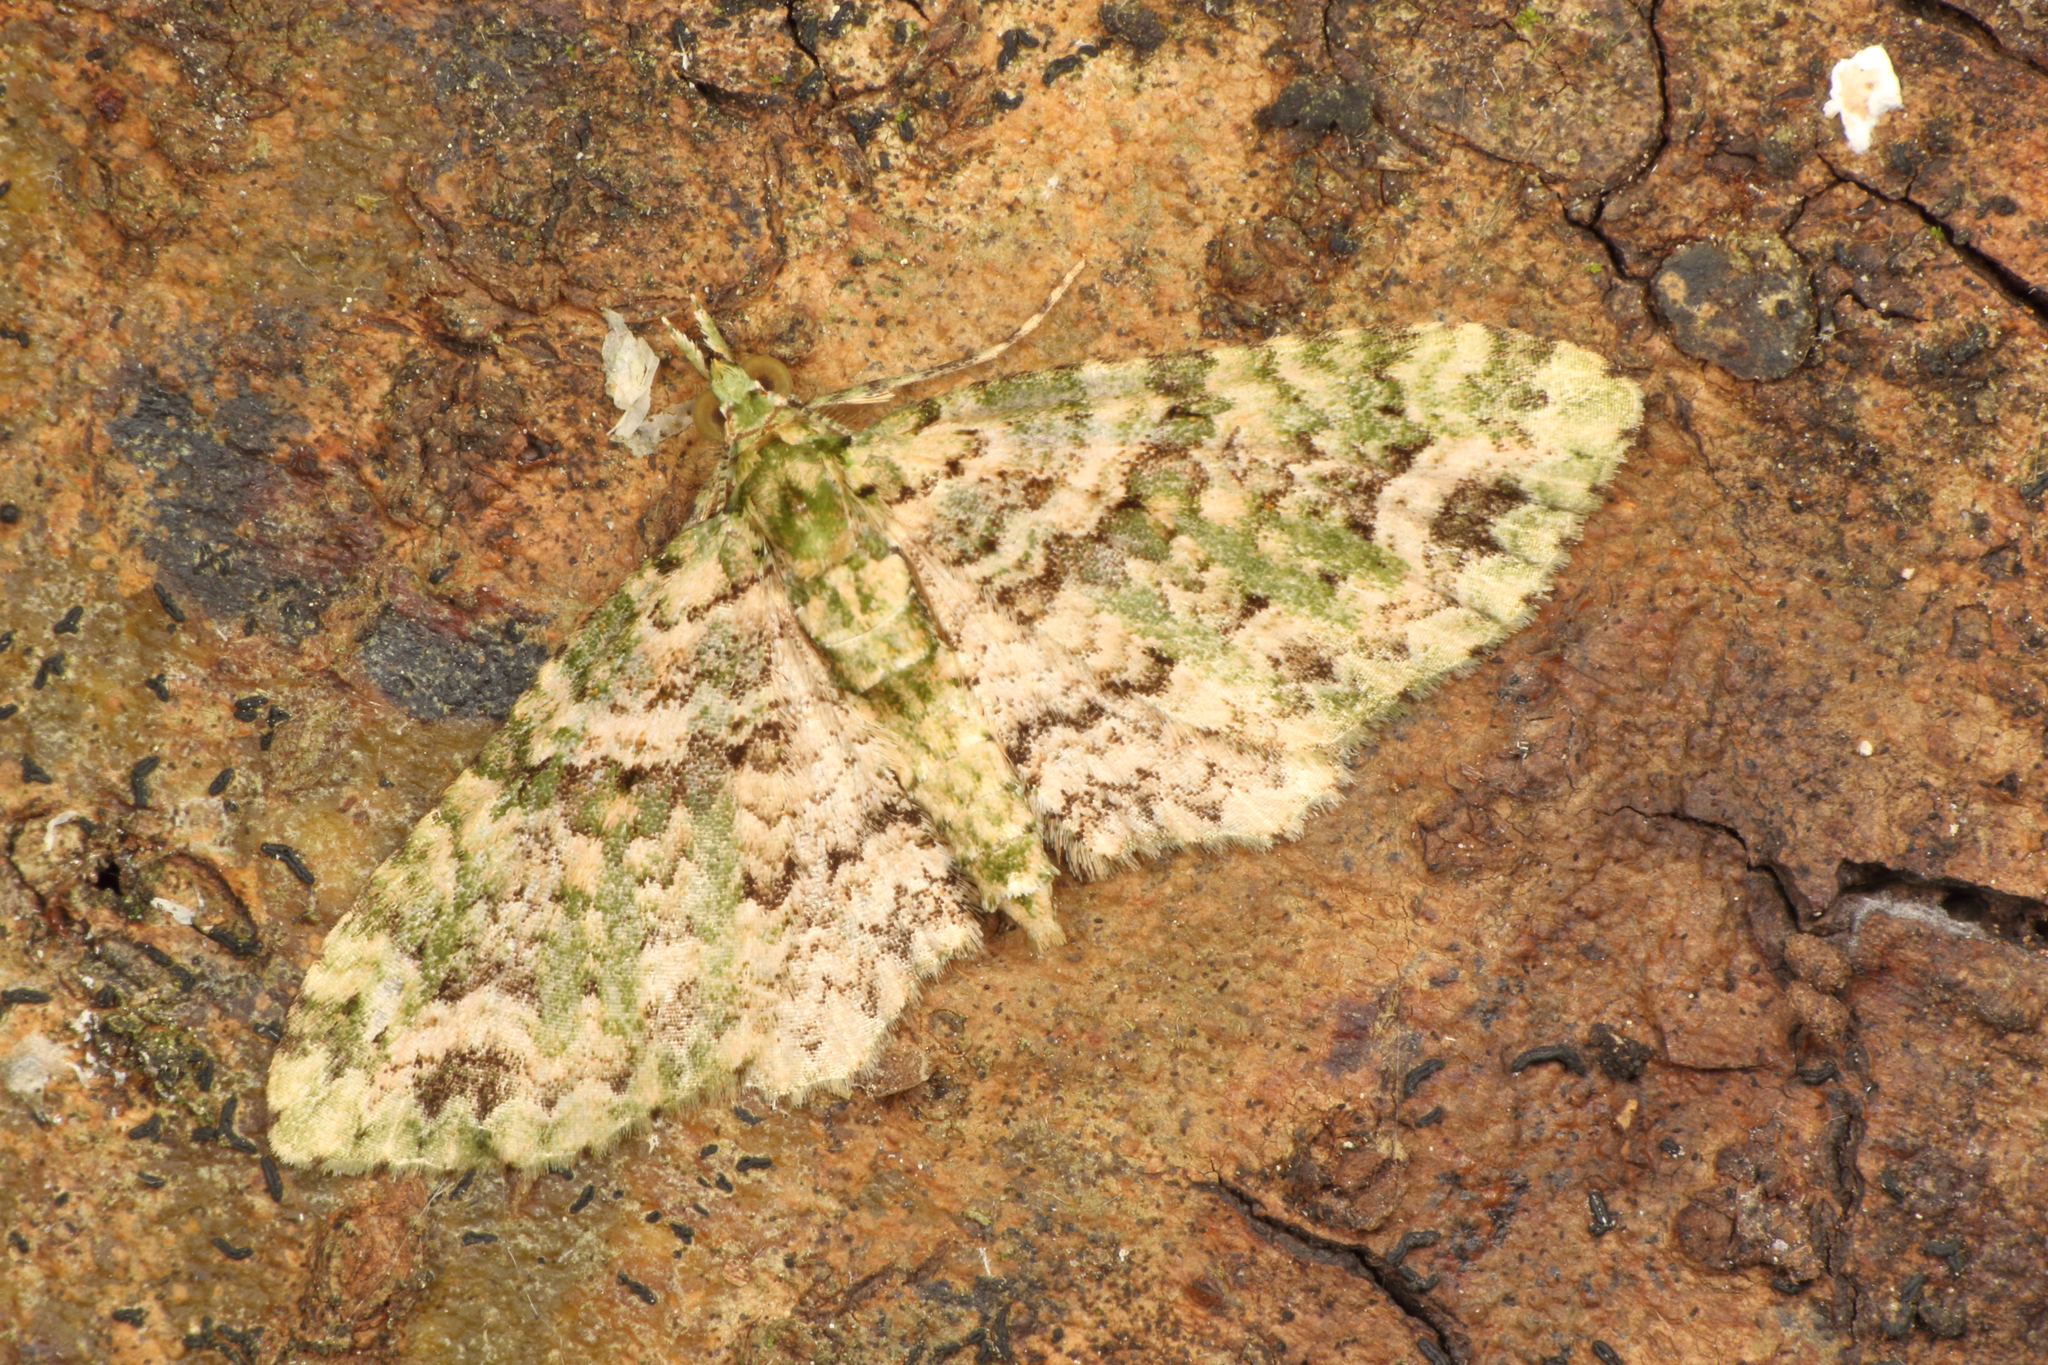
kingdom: Animalia
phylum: Arthropoda
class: Insecta
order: Lepidoptera
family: Geometridae
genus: Pasiphila
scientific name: Pasiphila muscosata
